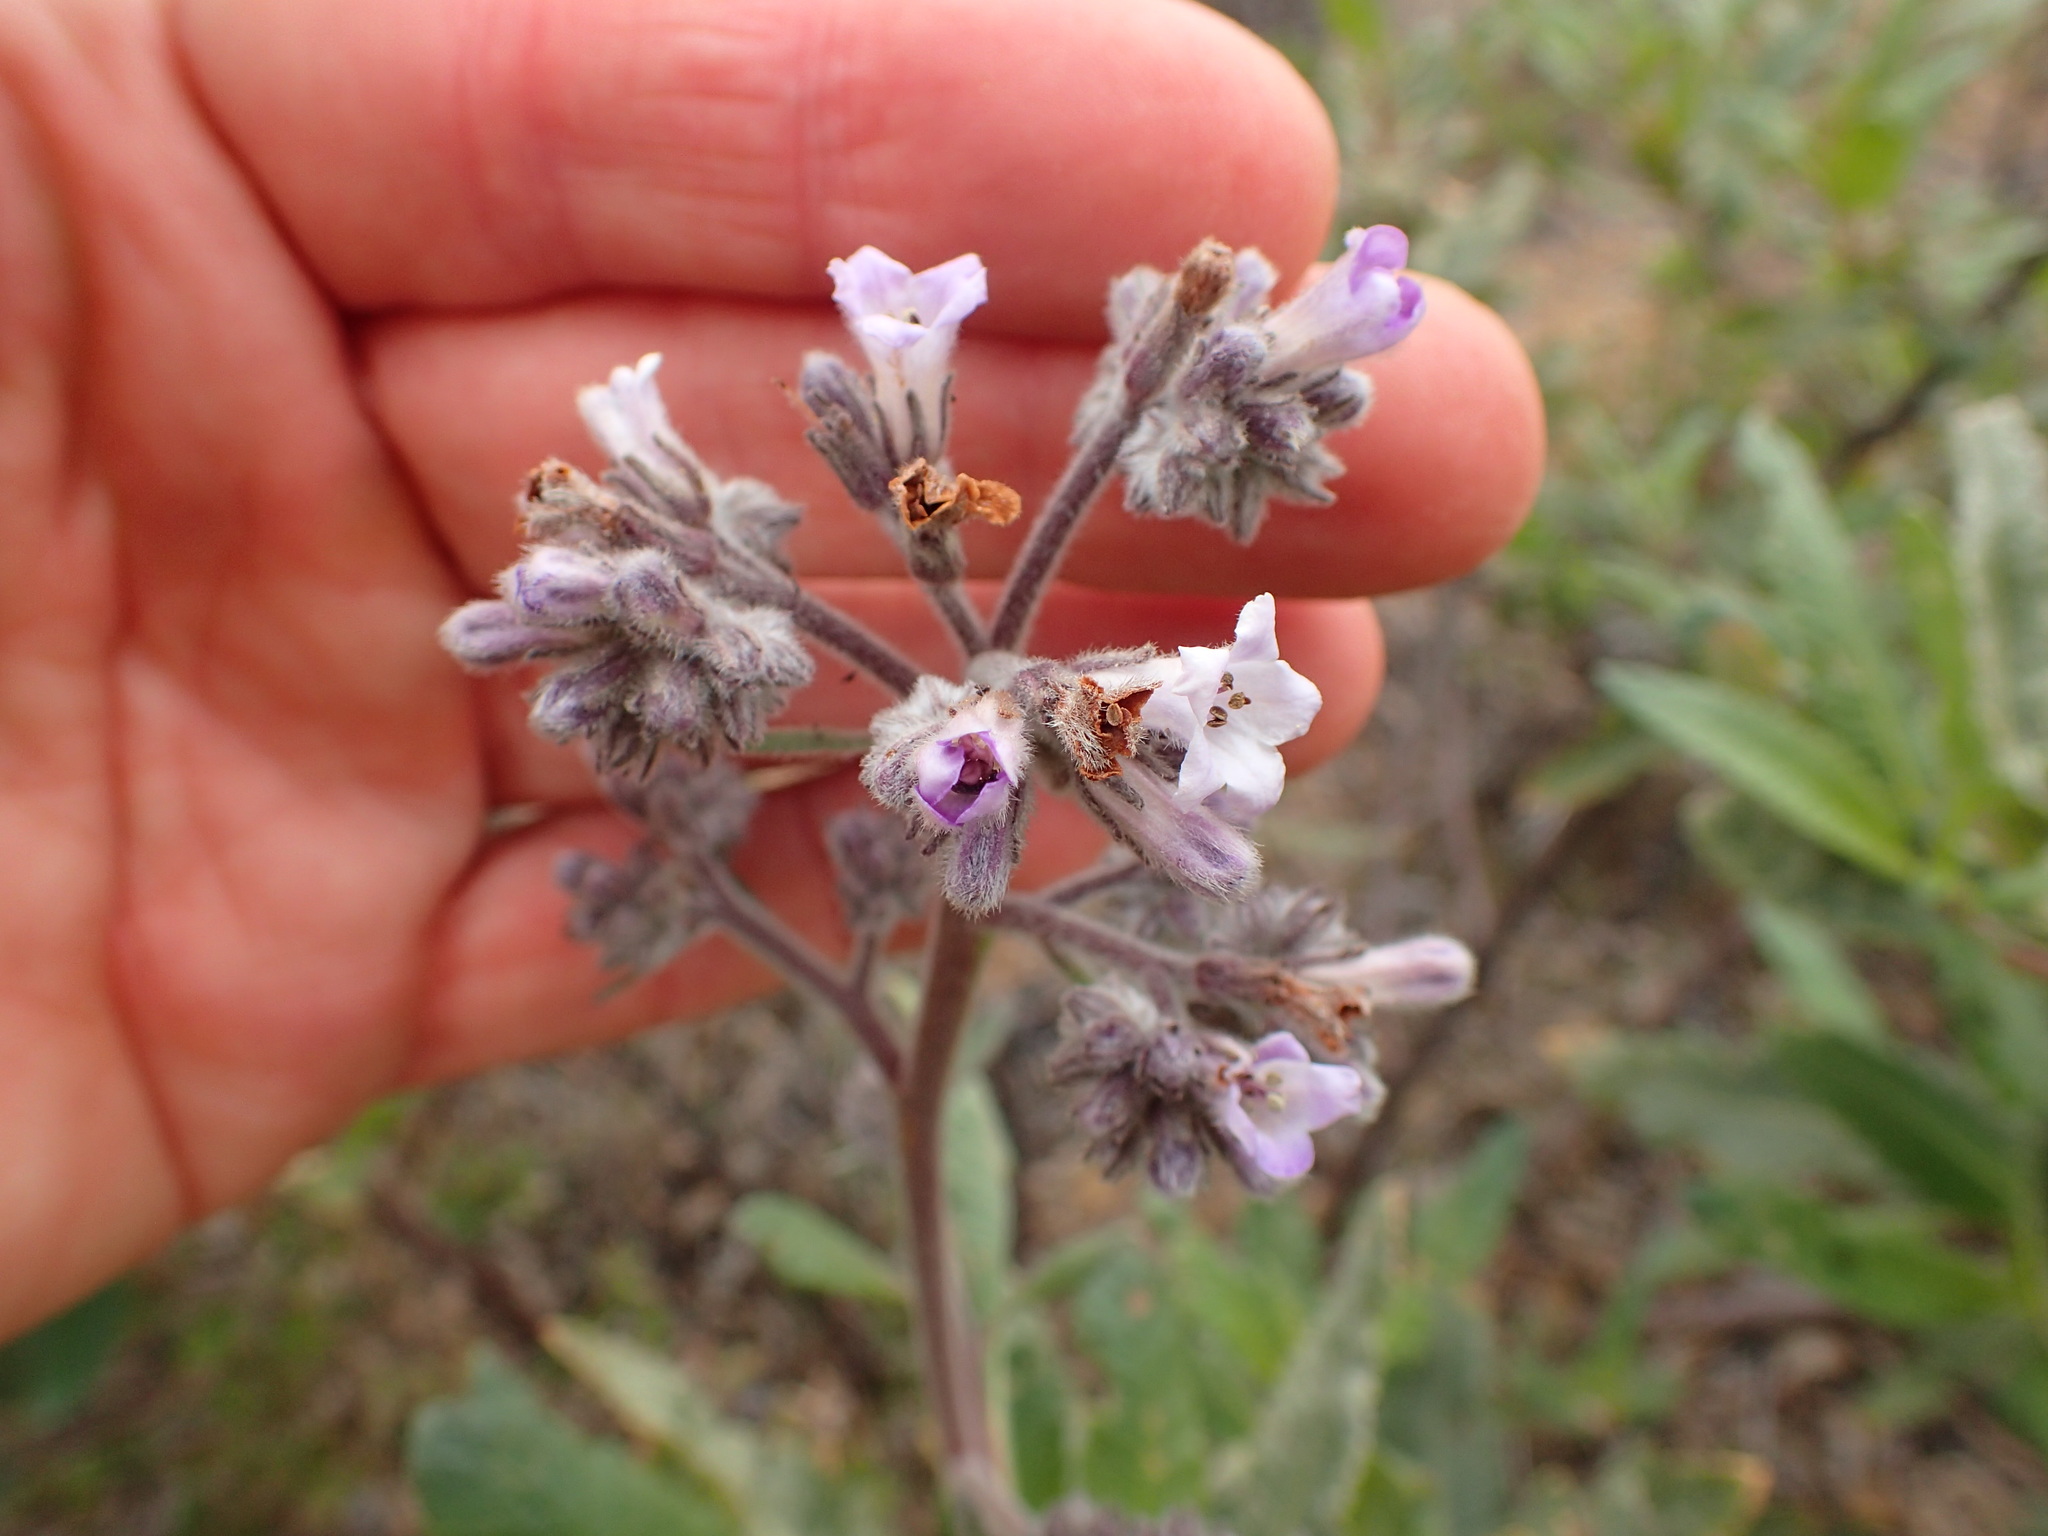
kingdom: Plantae
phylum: Tracheophyta
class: Magnoliopsida
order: Boraginales
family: Namaceae
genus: Eriodictyon
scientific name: Eriodictyon crassifolium
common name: Thick-leaf yerba-santa
